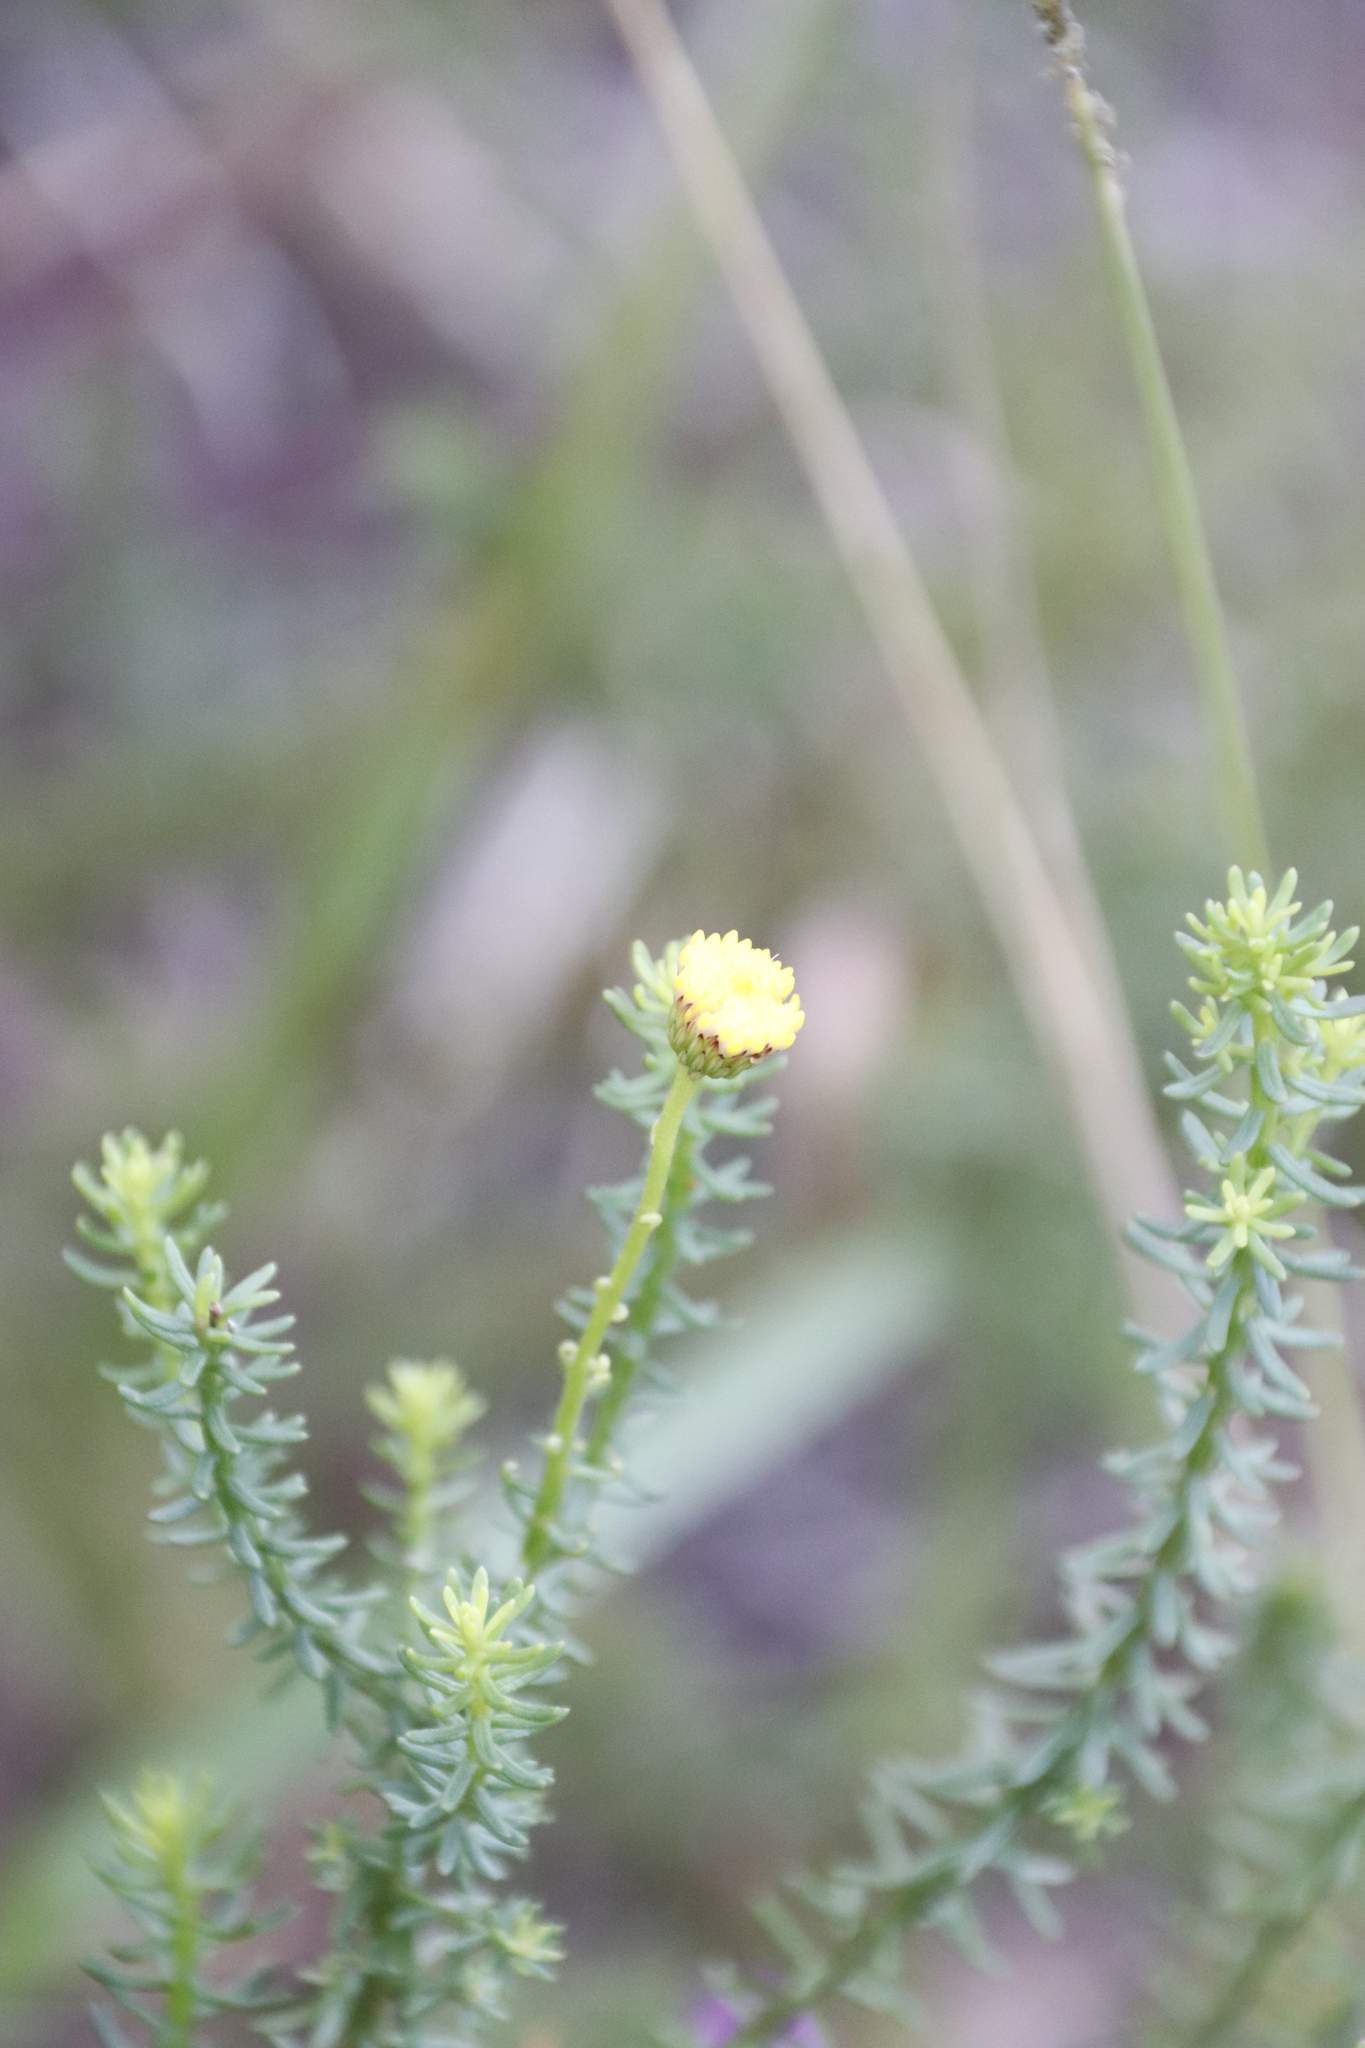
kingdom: Plantae
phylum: Tracheophyta
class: Magnoliopsida
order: Asterales
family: Asteraceae
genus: Chrysocoma
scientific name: Chrysocoma cernua
